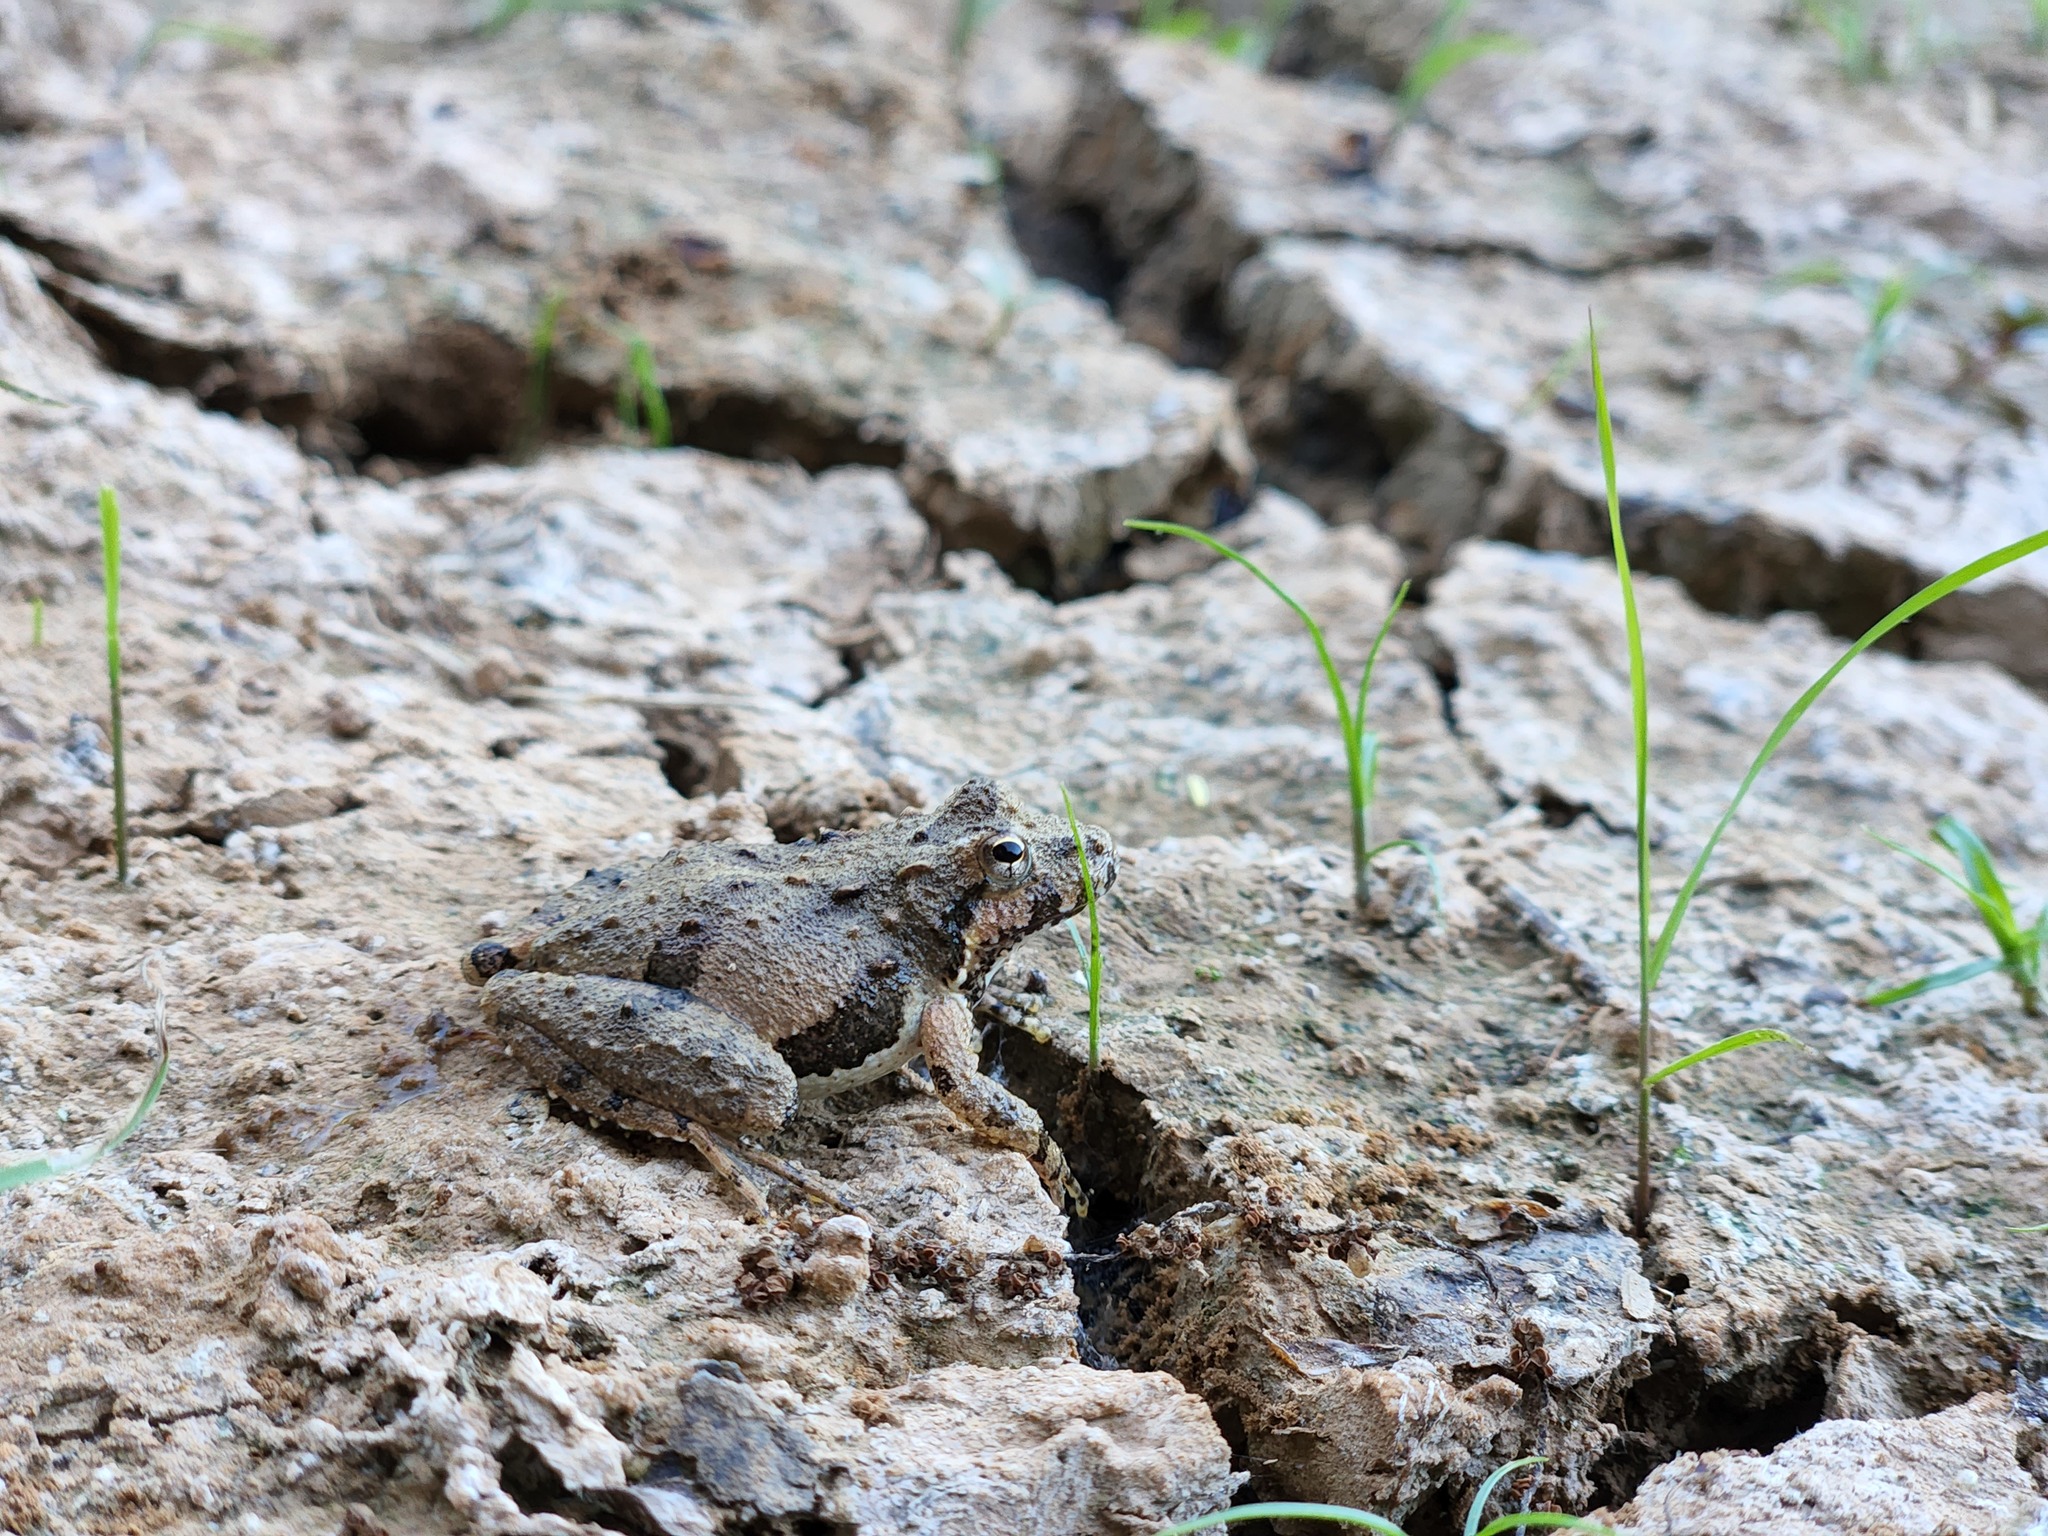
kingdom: Animalia
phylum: Chordata
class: Amphibia
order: Anura
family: Hylidae
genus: Acris
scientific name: Acris crepitans
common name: Northern cricket frog
